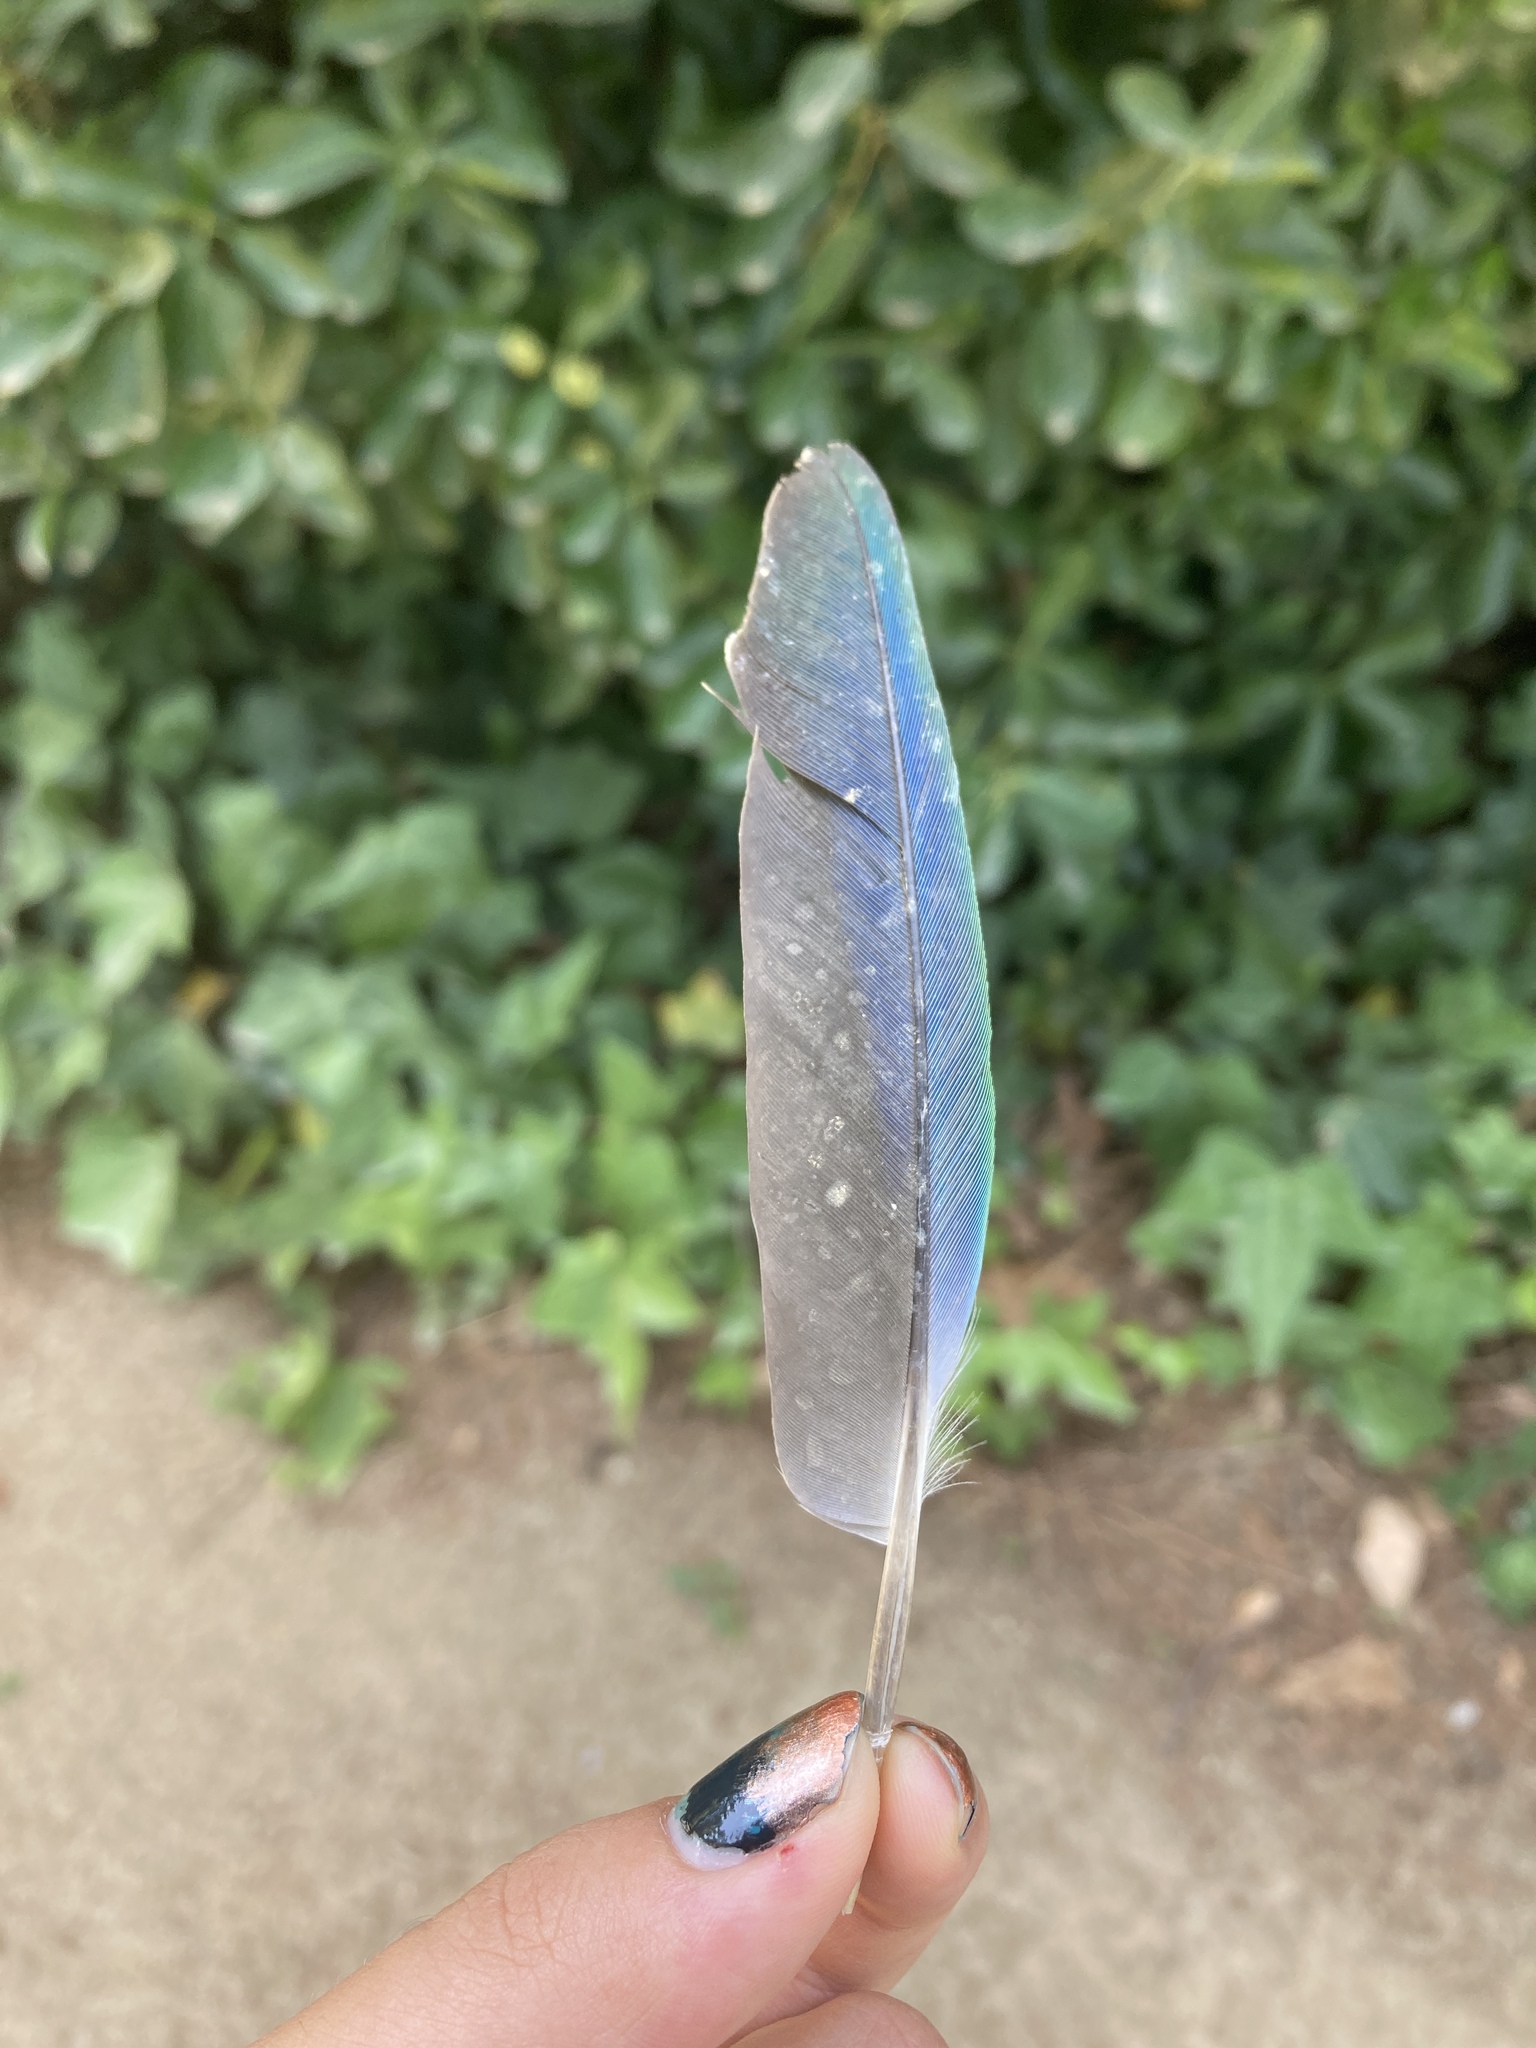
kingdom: Animalia
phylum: Chordata
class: Aves
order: Psittaciformes
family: Psittacidae
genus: Myiopsitta
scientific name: Myiopsitta monachus
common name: Monk parakeet
